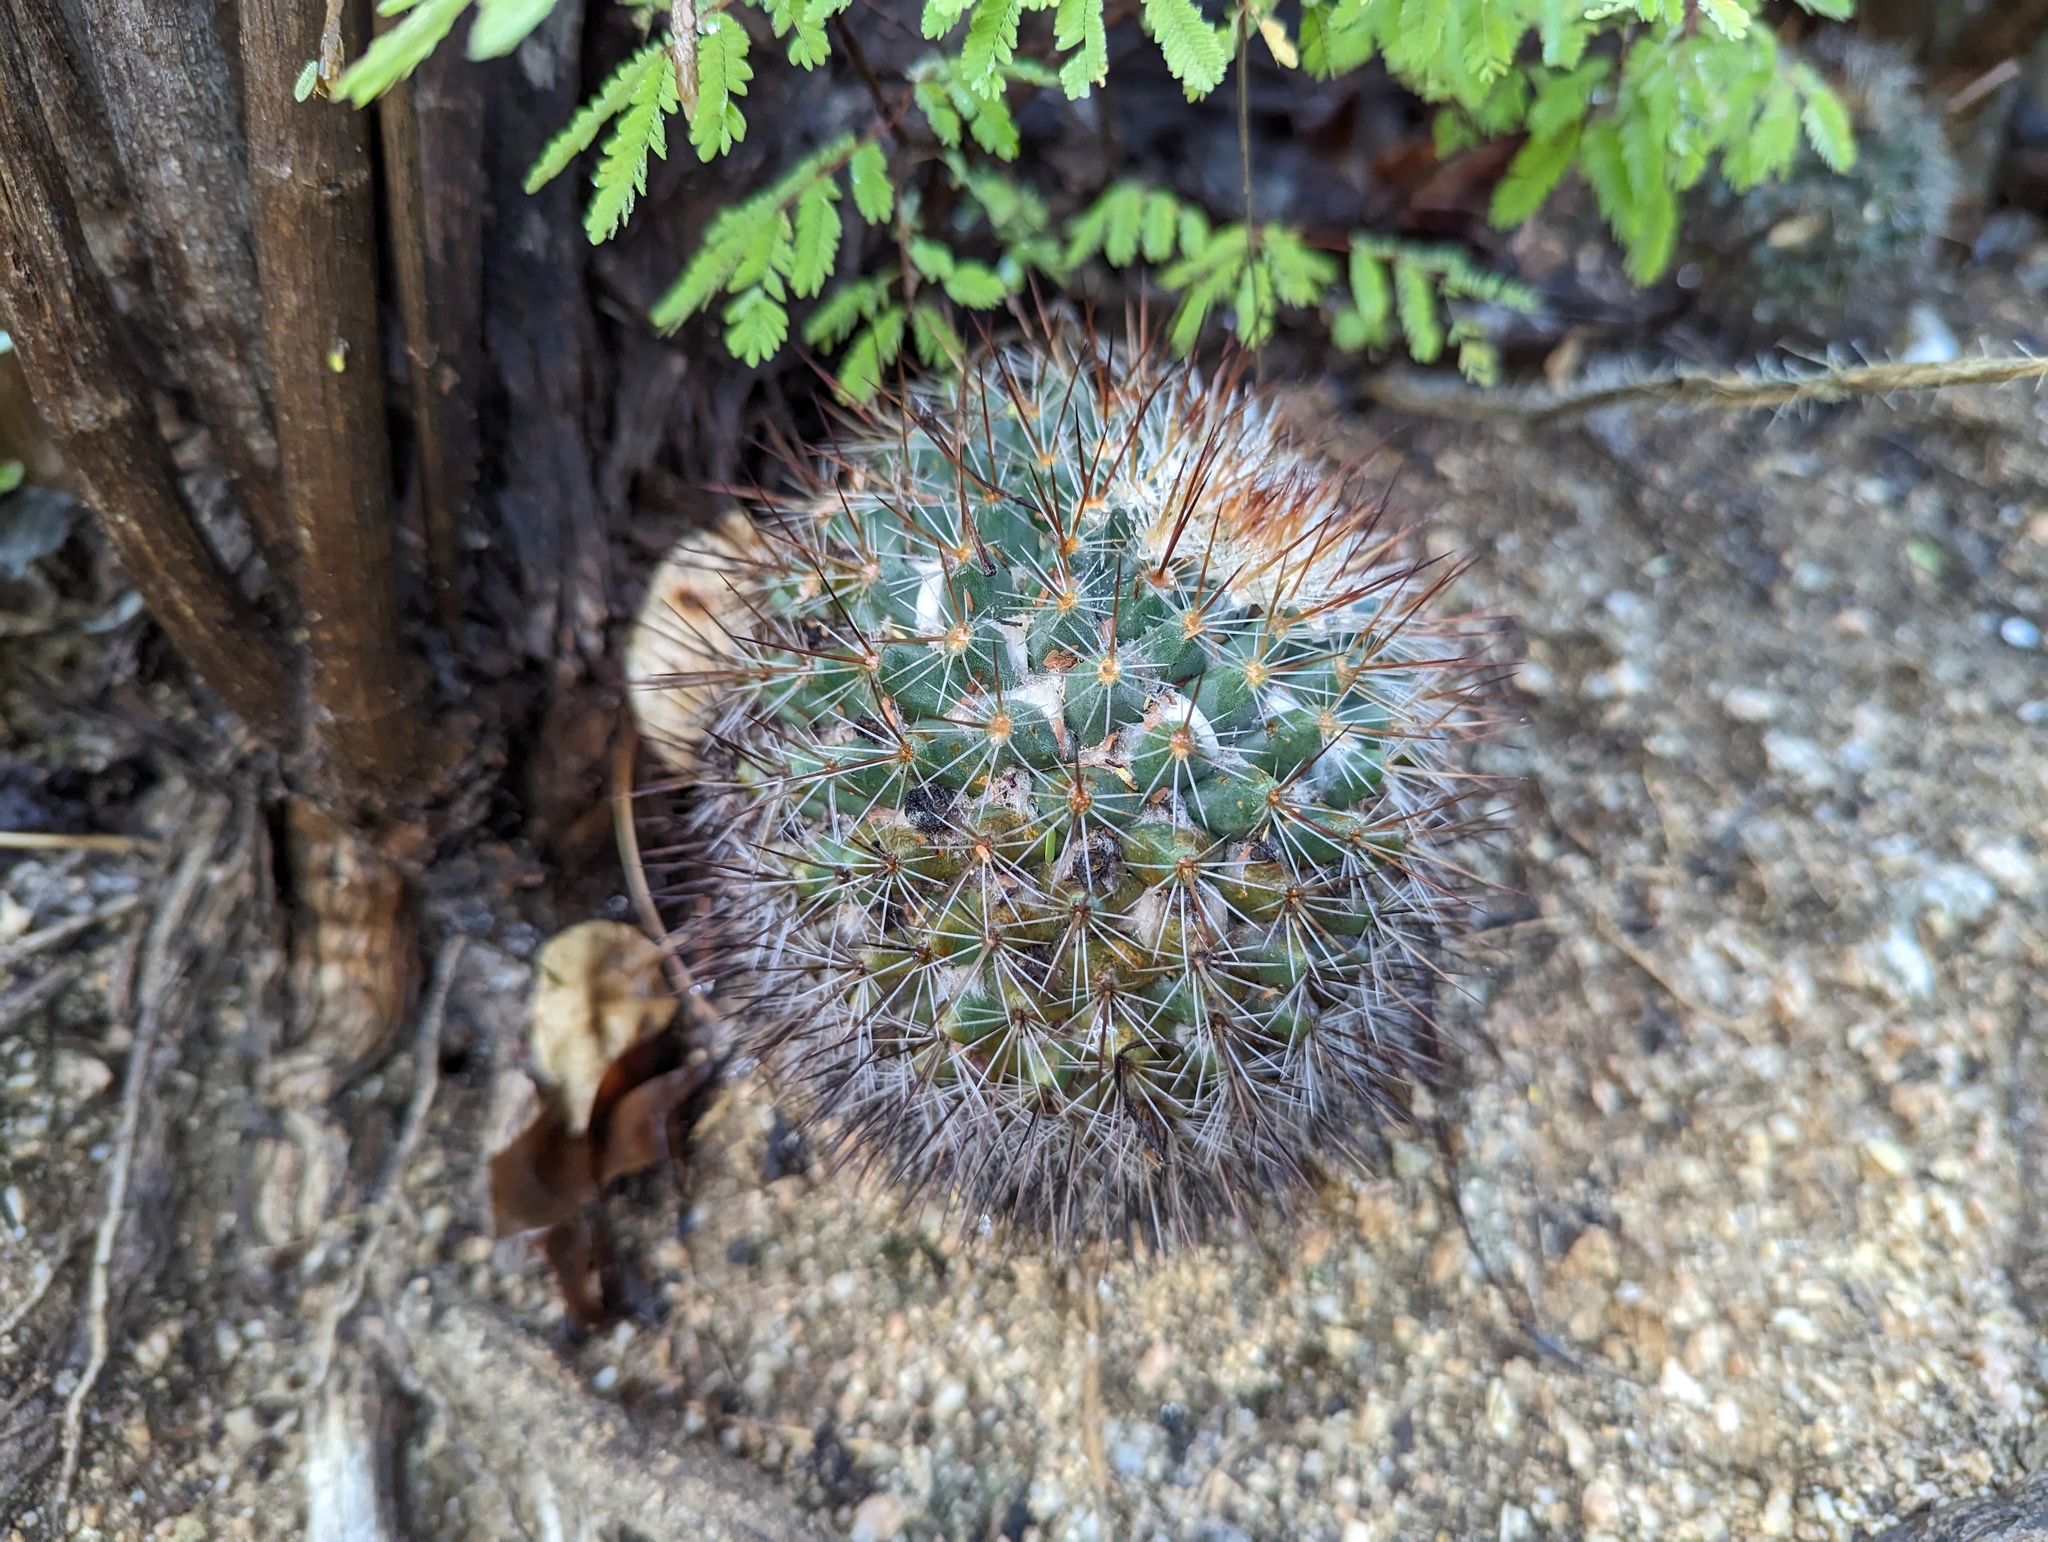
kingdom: Plantae
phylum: Tracheophyta
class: Magnoliopsida
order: Caryophyllales
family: Cactaceae
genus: Mammillaria
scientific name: Mammillaria petrophila
